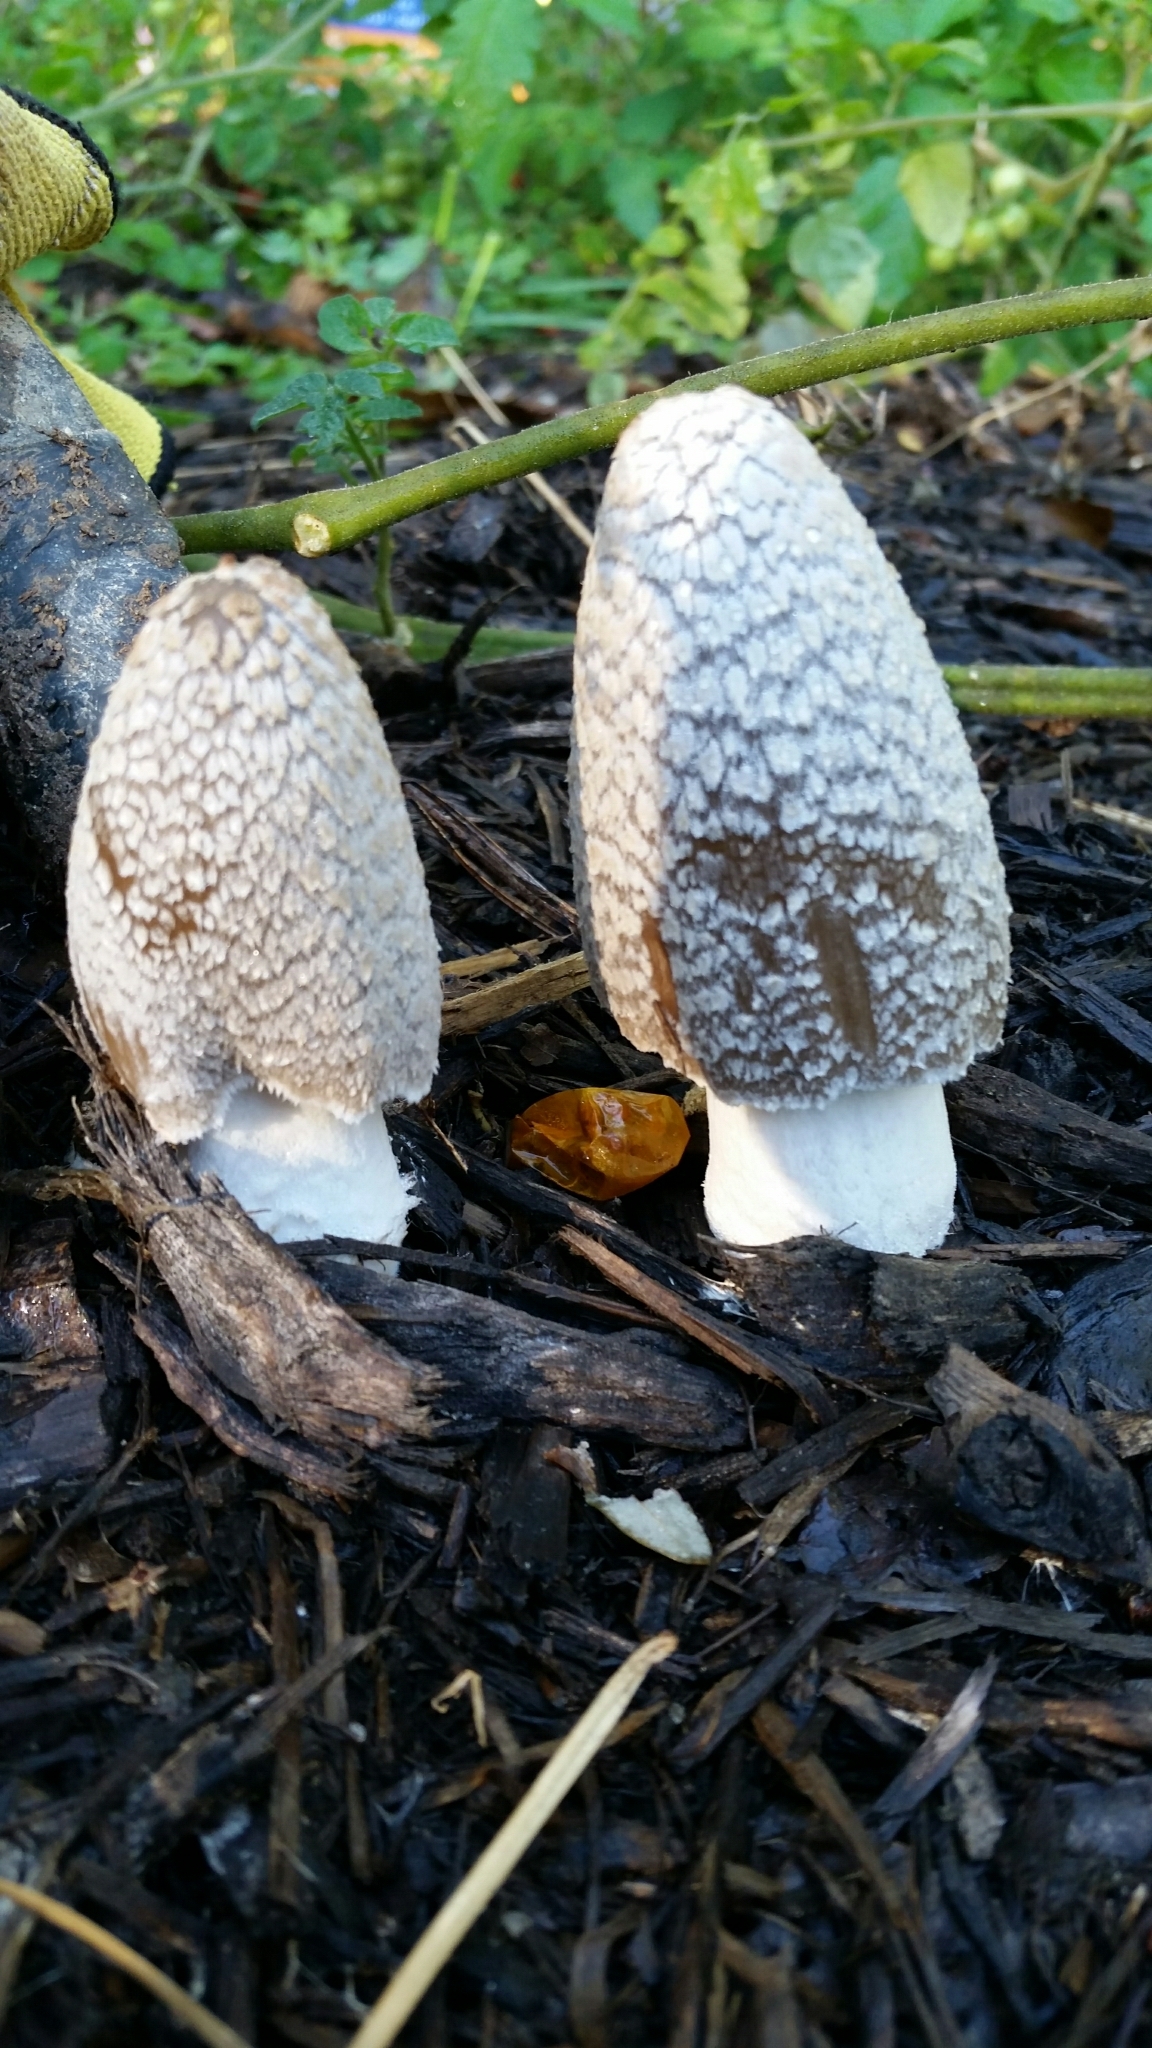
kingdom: Fungi
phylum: Basidiomycota
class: Agaricomycetes
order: Agaricales
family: Psathyrellaceae
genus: Coprinopsis
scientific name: Coprinopsis picacea
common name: Magpie inkcap
